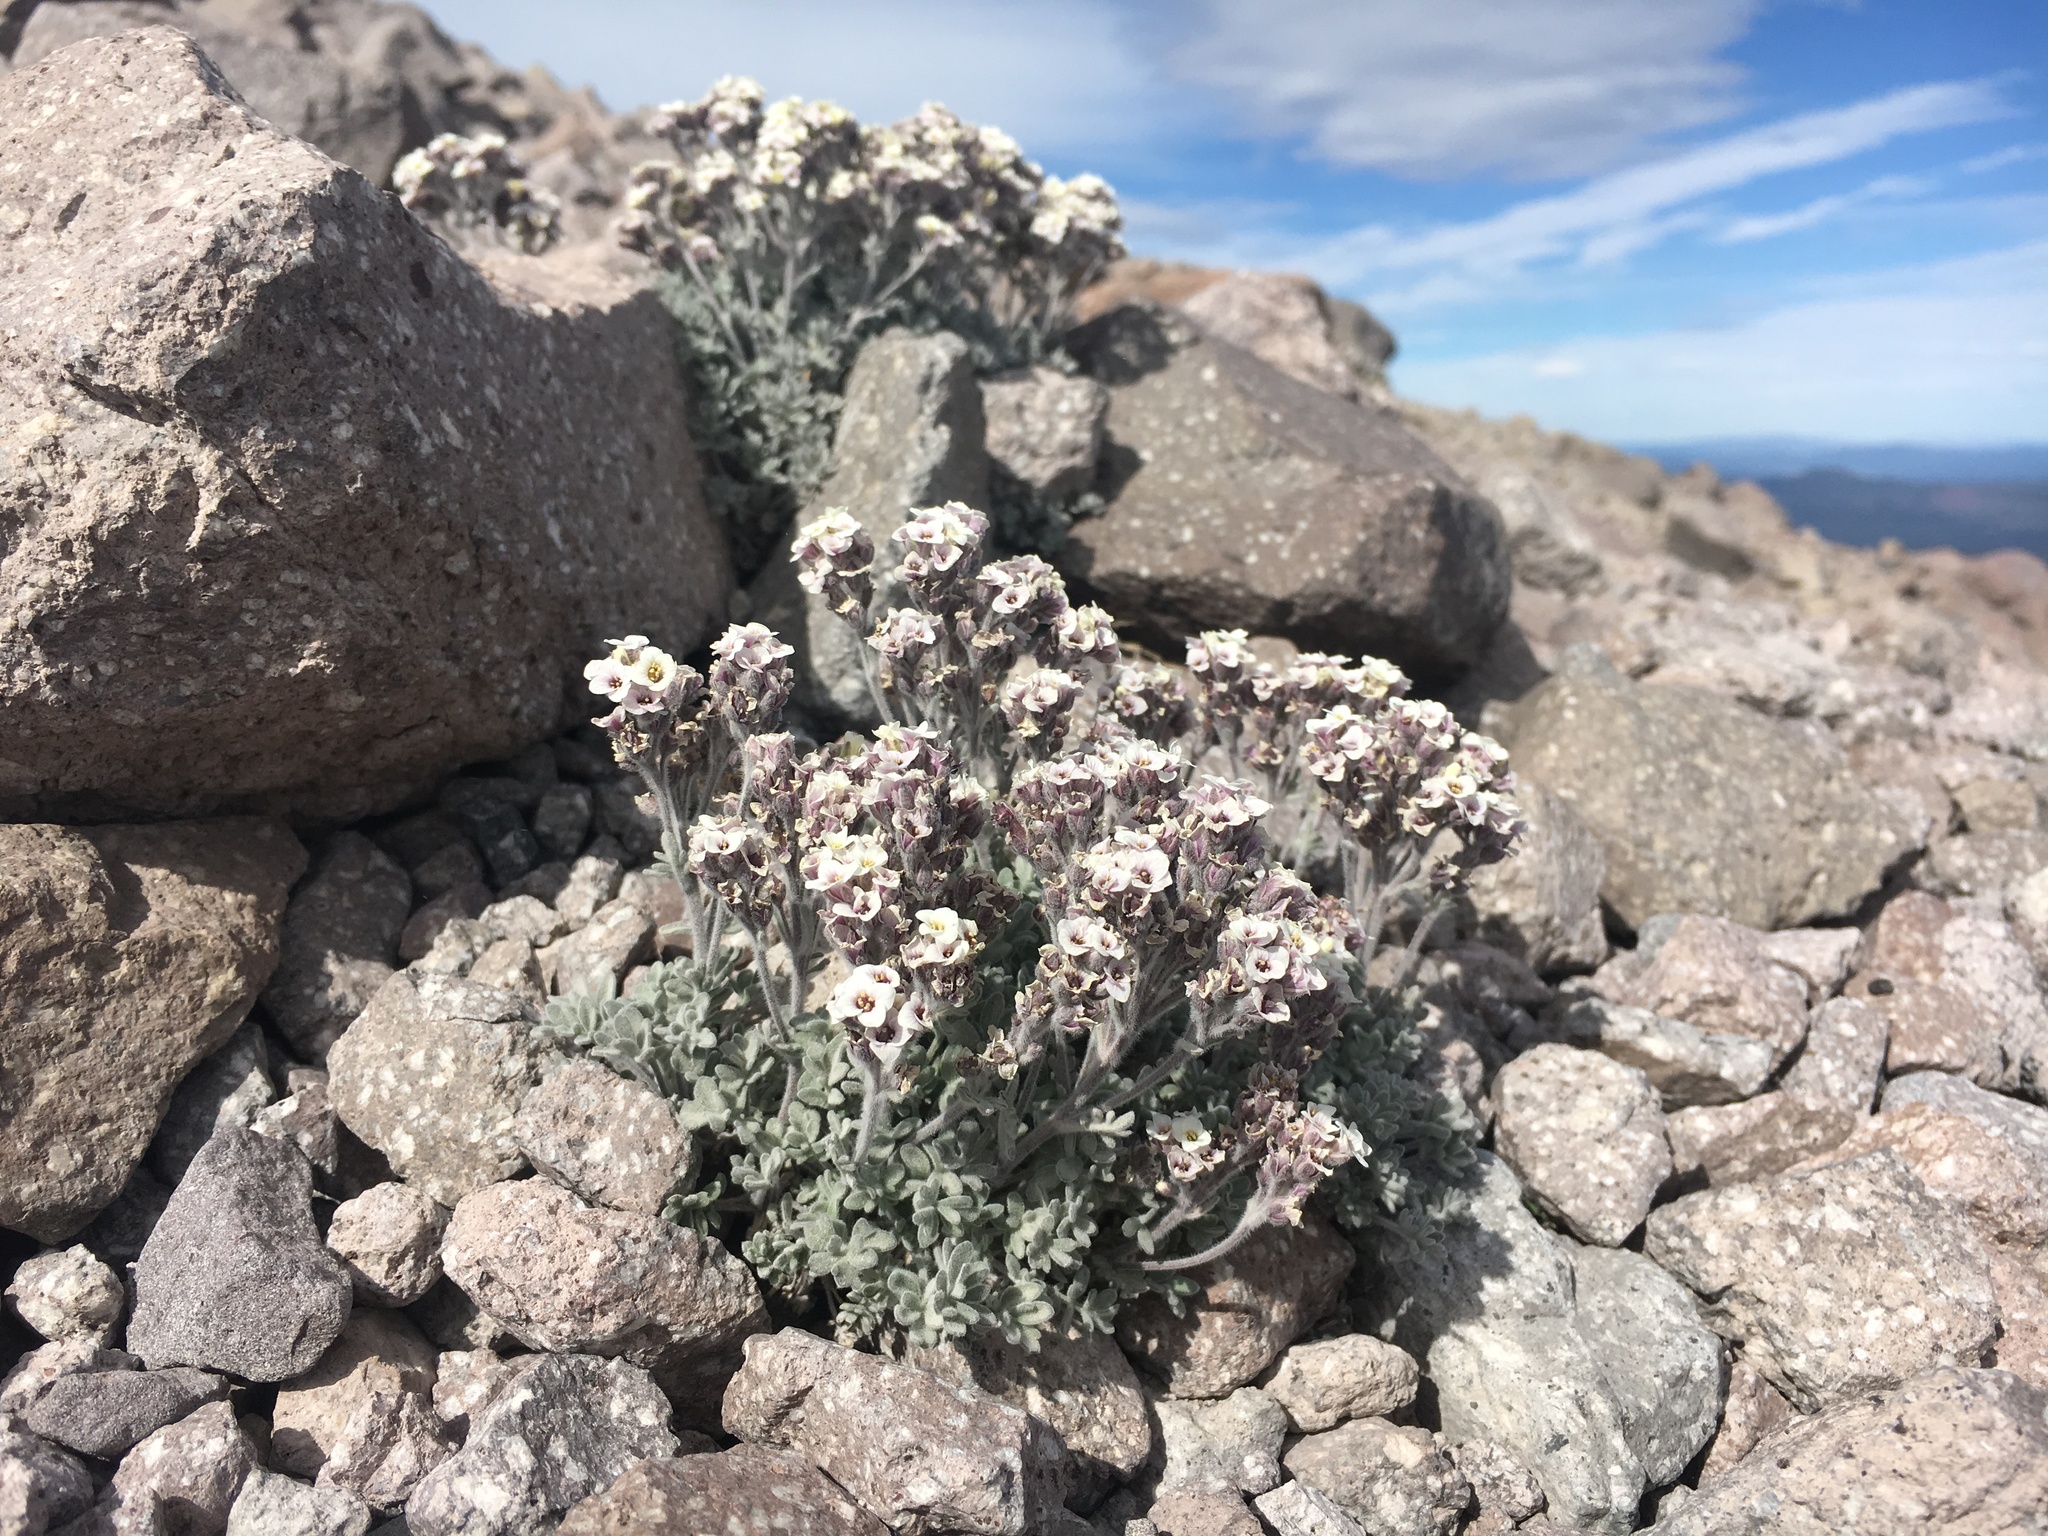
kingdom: Plantae
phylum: Tracheophyta
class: Magnoliopsida
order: Brassicales
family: Brassicaceae
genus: Smelowskia
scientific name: Smelowskia ovalis
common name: Alpine false candytuft
